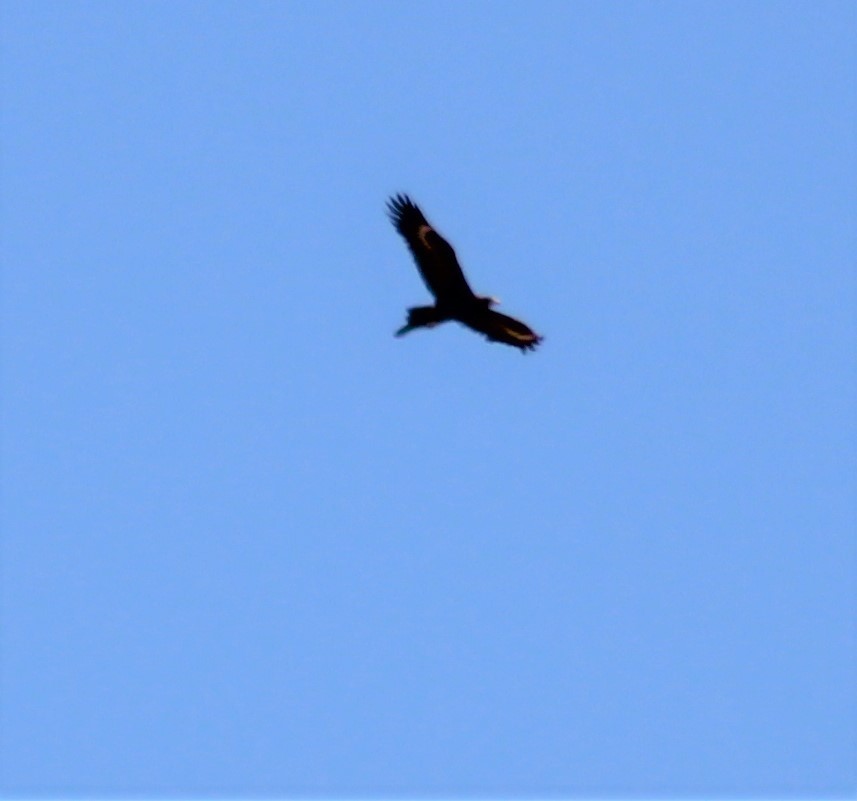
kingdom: Animalia
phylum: Chordata
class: Aves
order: Accipitriformes
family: Accipitridae
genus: Aquila
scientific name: Aquila audax
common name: Wedge-tailed eagle
